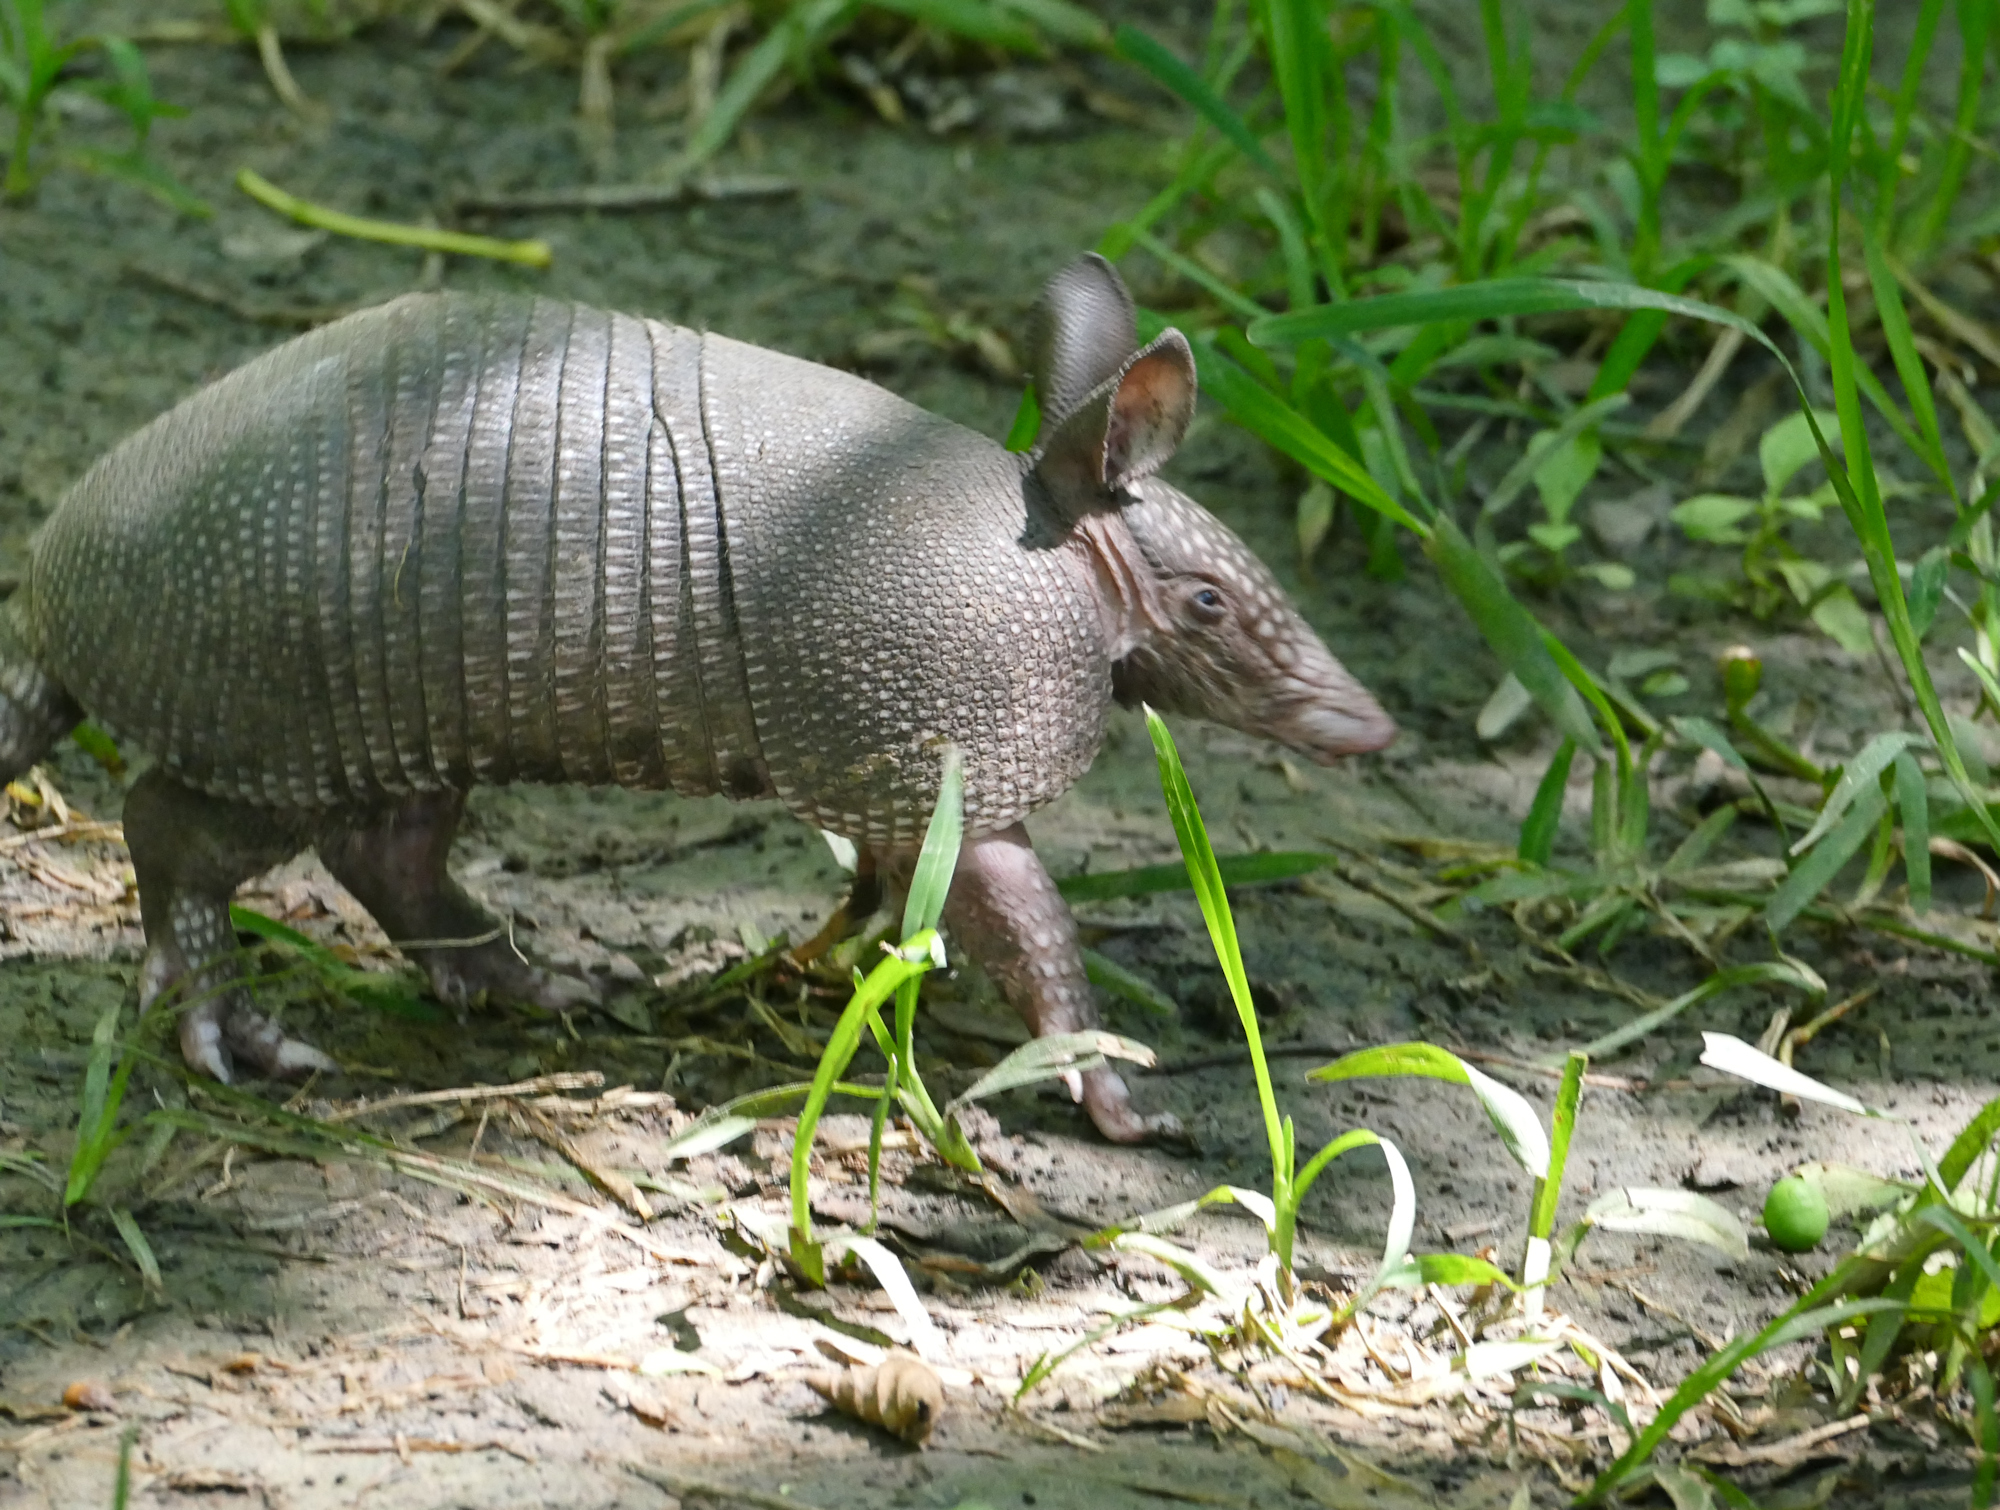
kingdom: Animalia
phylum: Chordata
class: Mammalia
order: Cingulata
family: Dasypodidae
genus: Dasypus
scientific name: Dasypus novemcinctus
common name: Nine-banded armadillo
